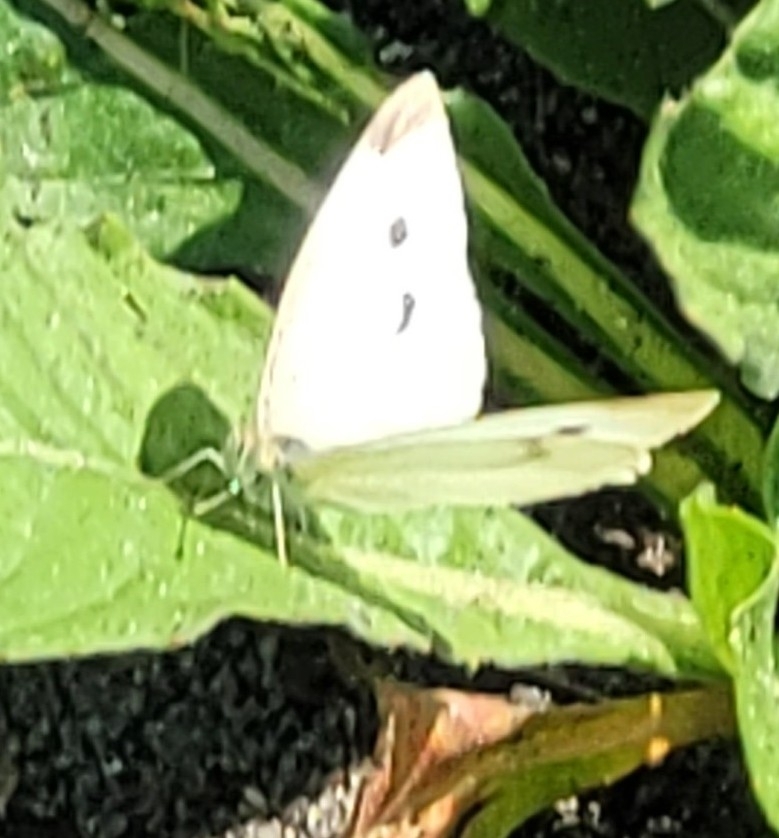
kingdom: Animalia
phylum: Arthropoda
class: Insecta
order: Lepidoptera
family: Pieridae
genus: Pieris
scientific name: Pieris rapae
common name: Small white
